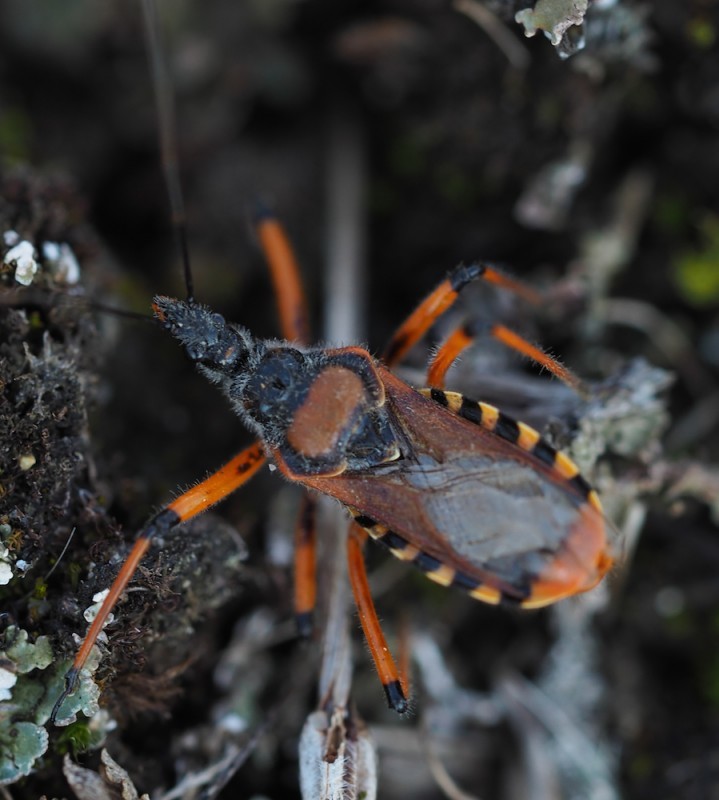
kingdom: Animalia
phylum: Arthropoda
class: Insecta
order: Hemiptera
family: Reduviidae
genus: Rhynocoris
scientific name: Rhynocoris iracundus
